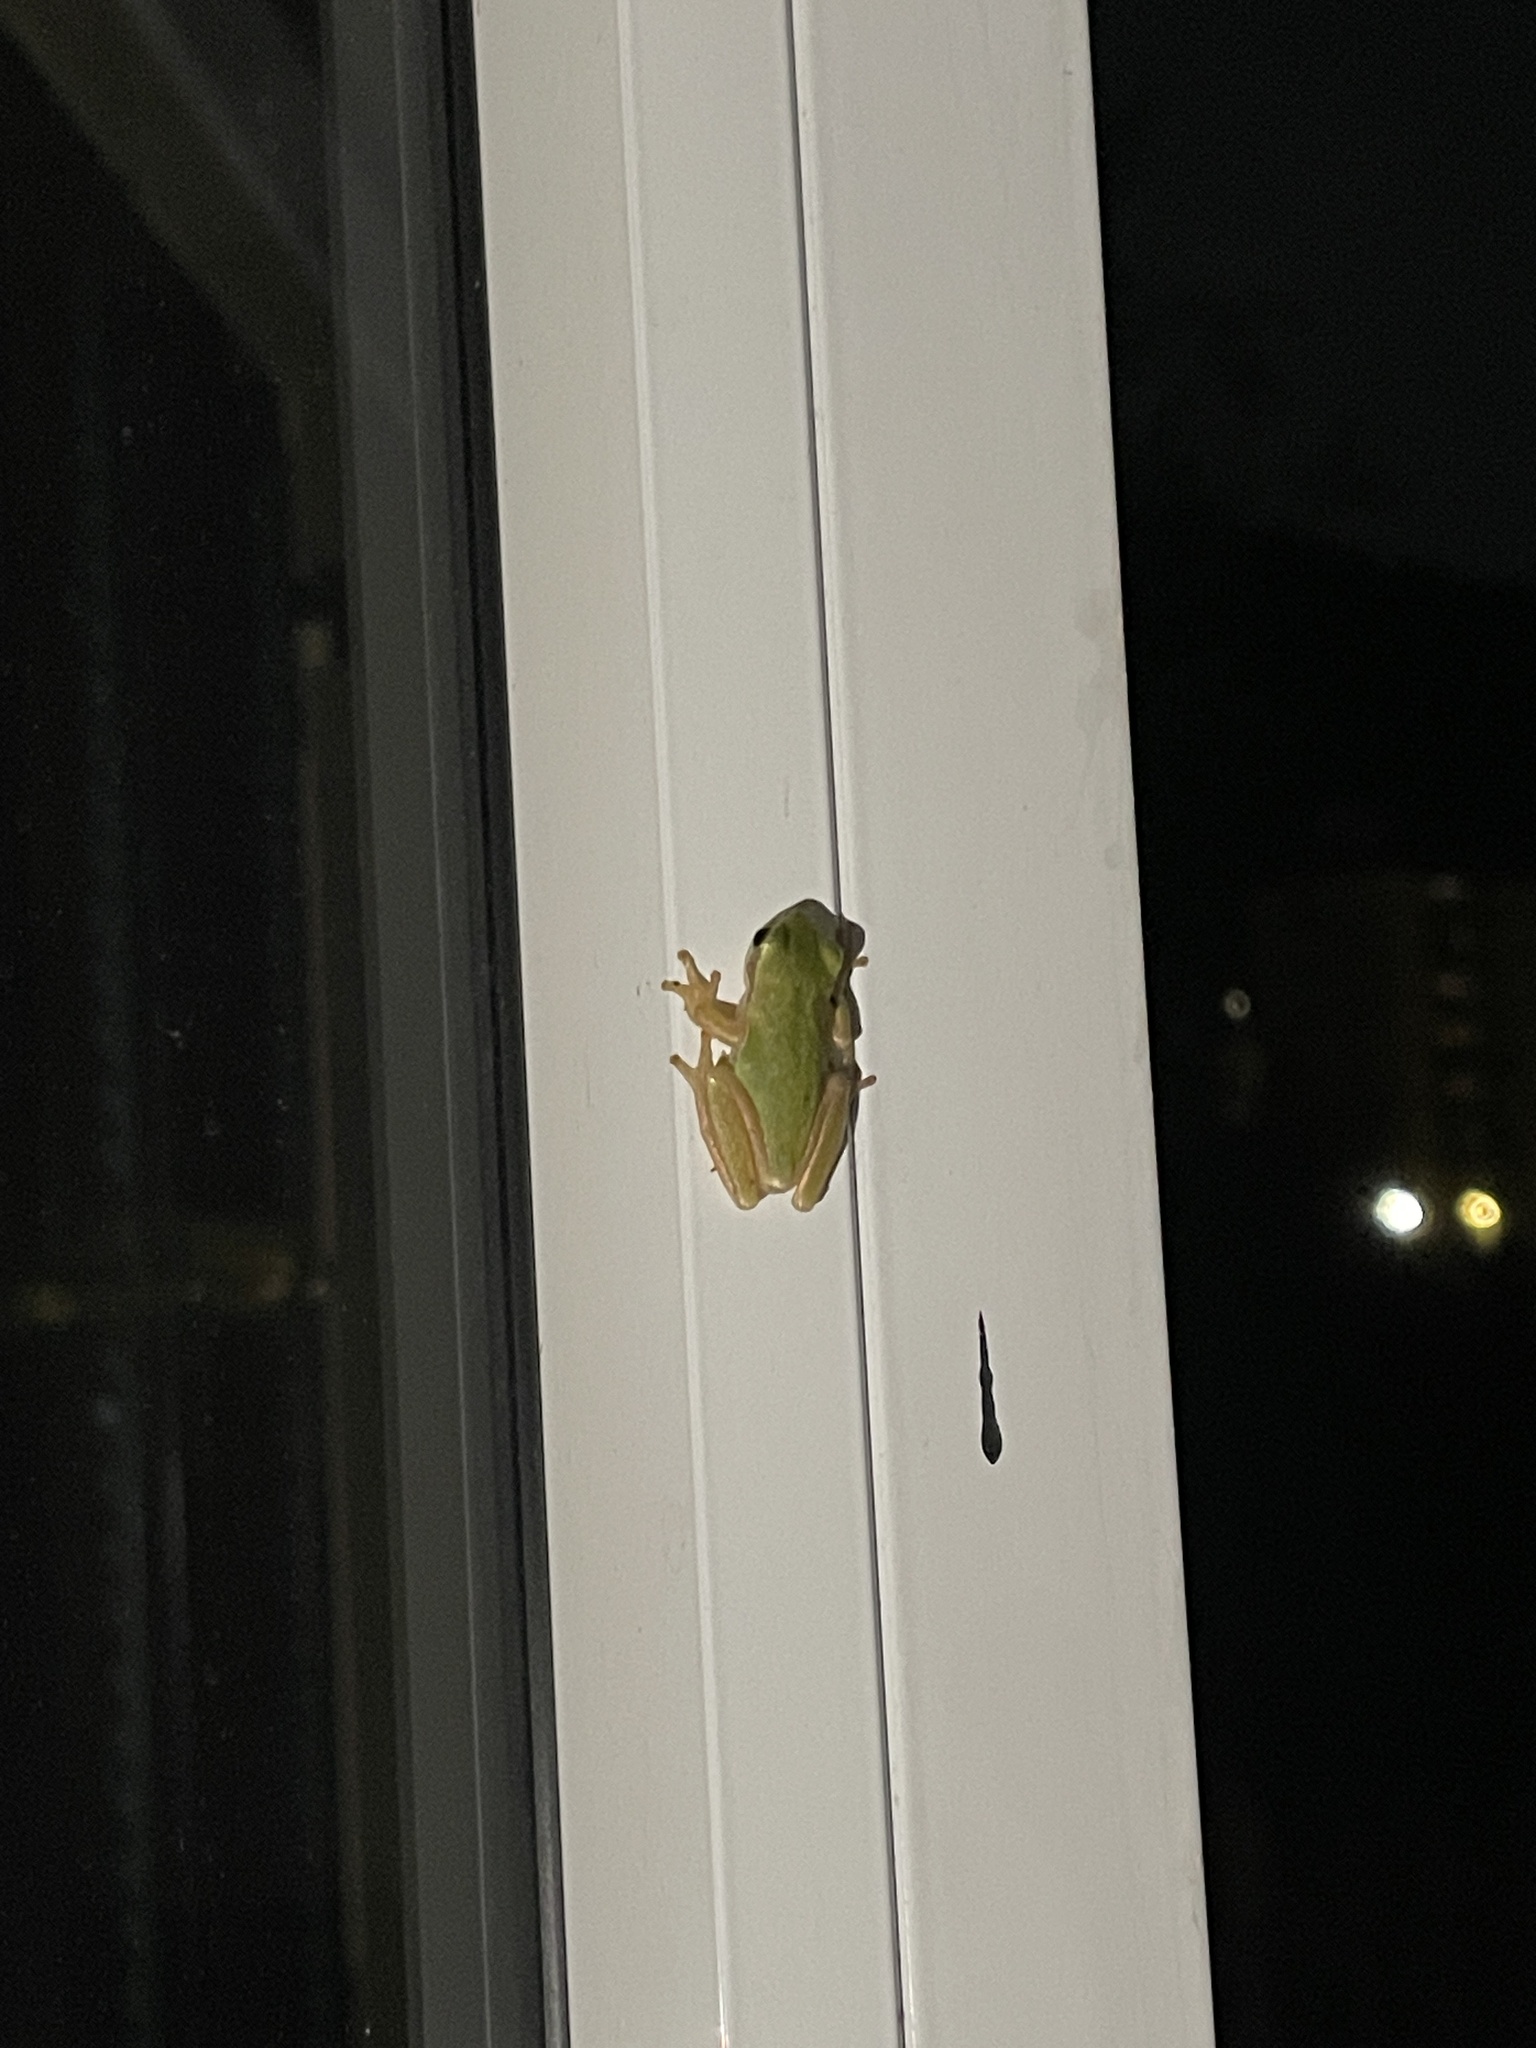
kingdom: Animalia
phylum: Chordata
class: Amphibia
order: Anura
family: Hylidae
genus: Hyla
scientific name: Hyla meridionalis
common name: Stripeless tree frog
